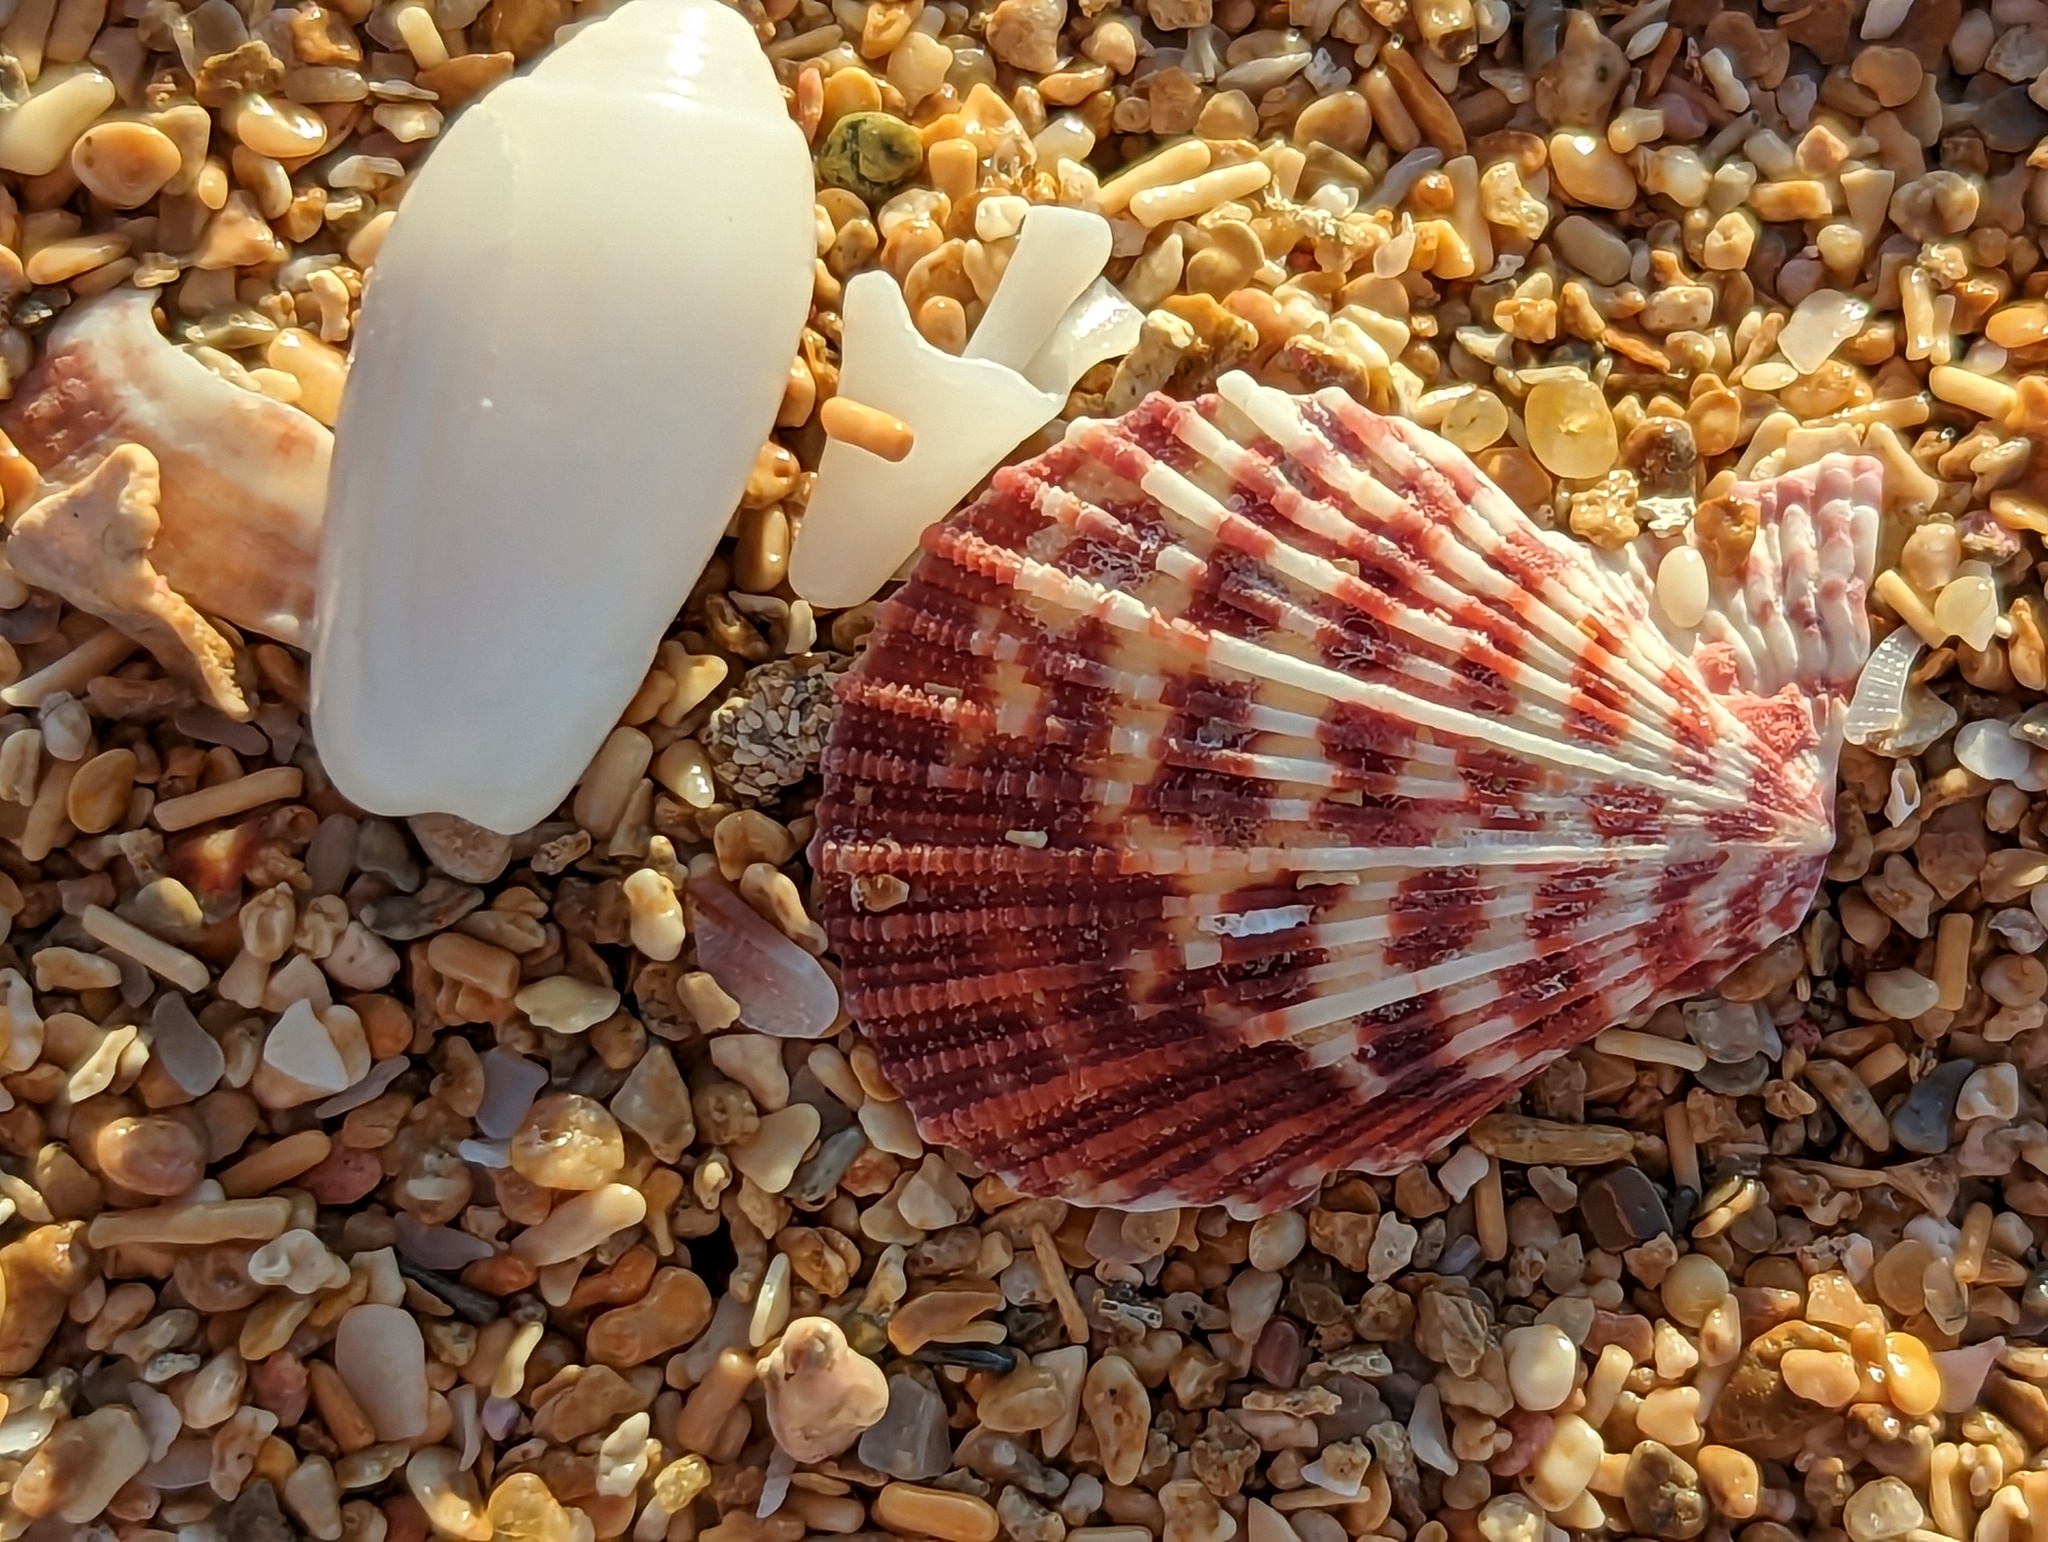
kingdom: Animalia
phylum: Mollusca
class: Bivalvia
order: Pectinida
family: Pectinidae
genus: Caribachlamys
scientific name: Caribachlamys ornata
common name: Ornate scallop
